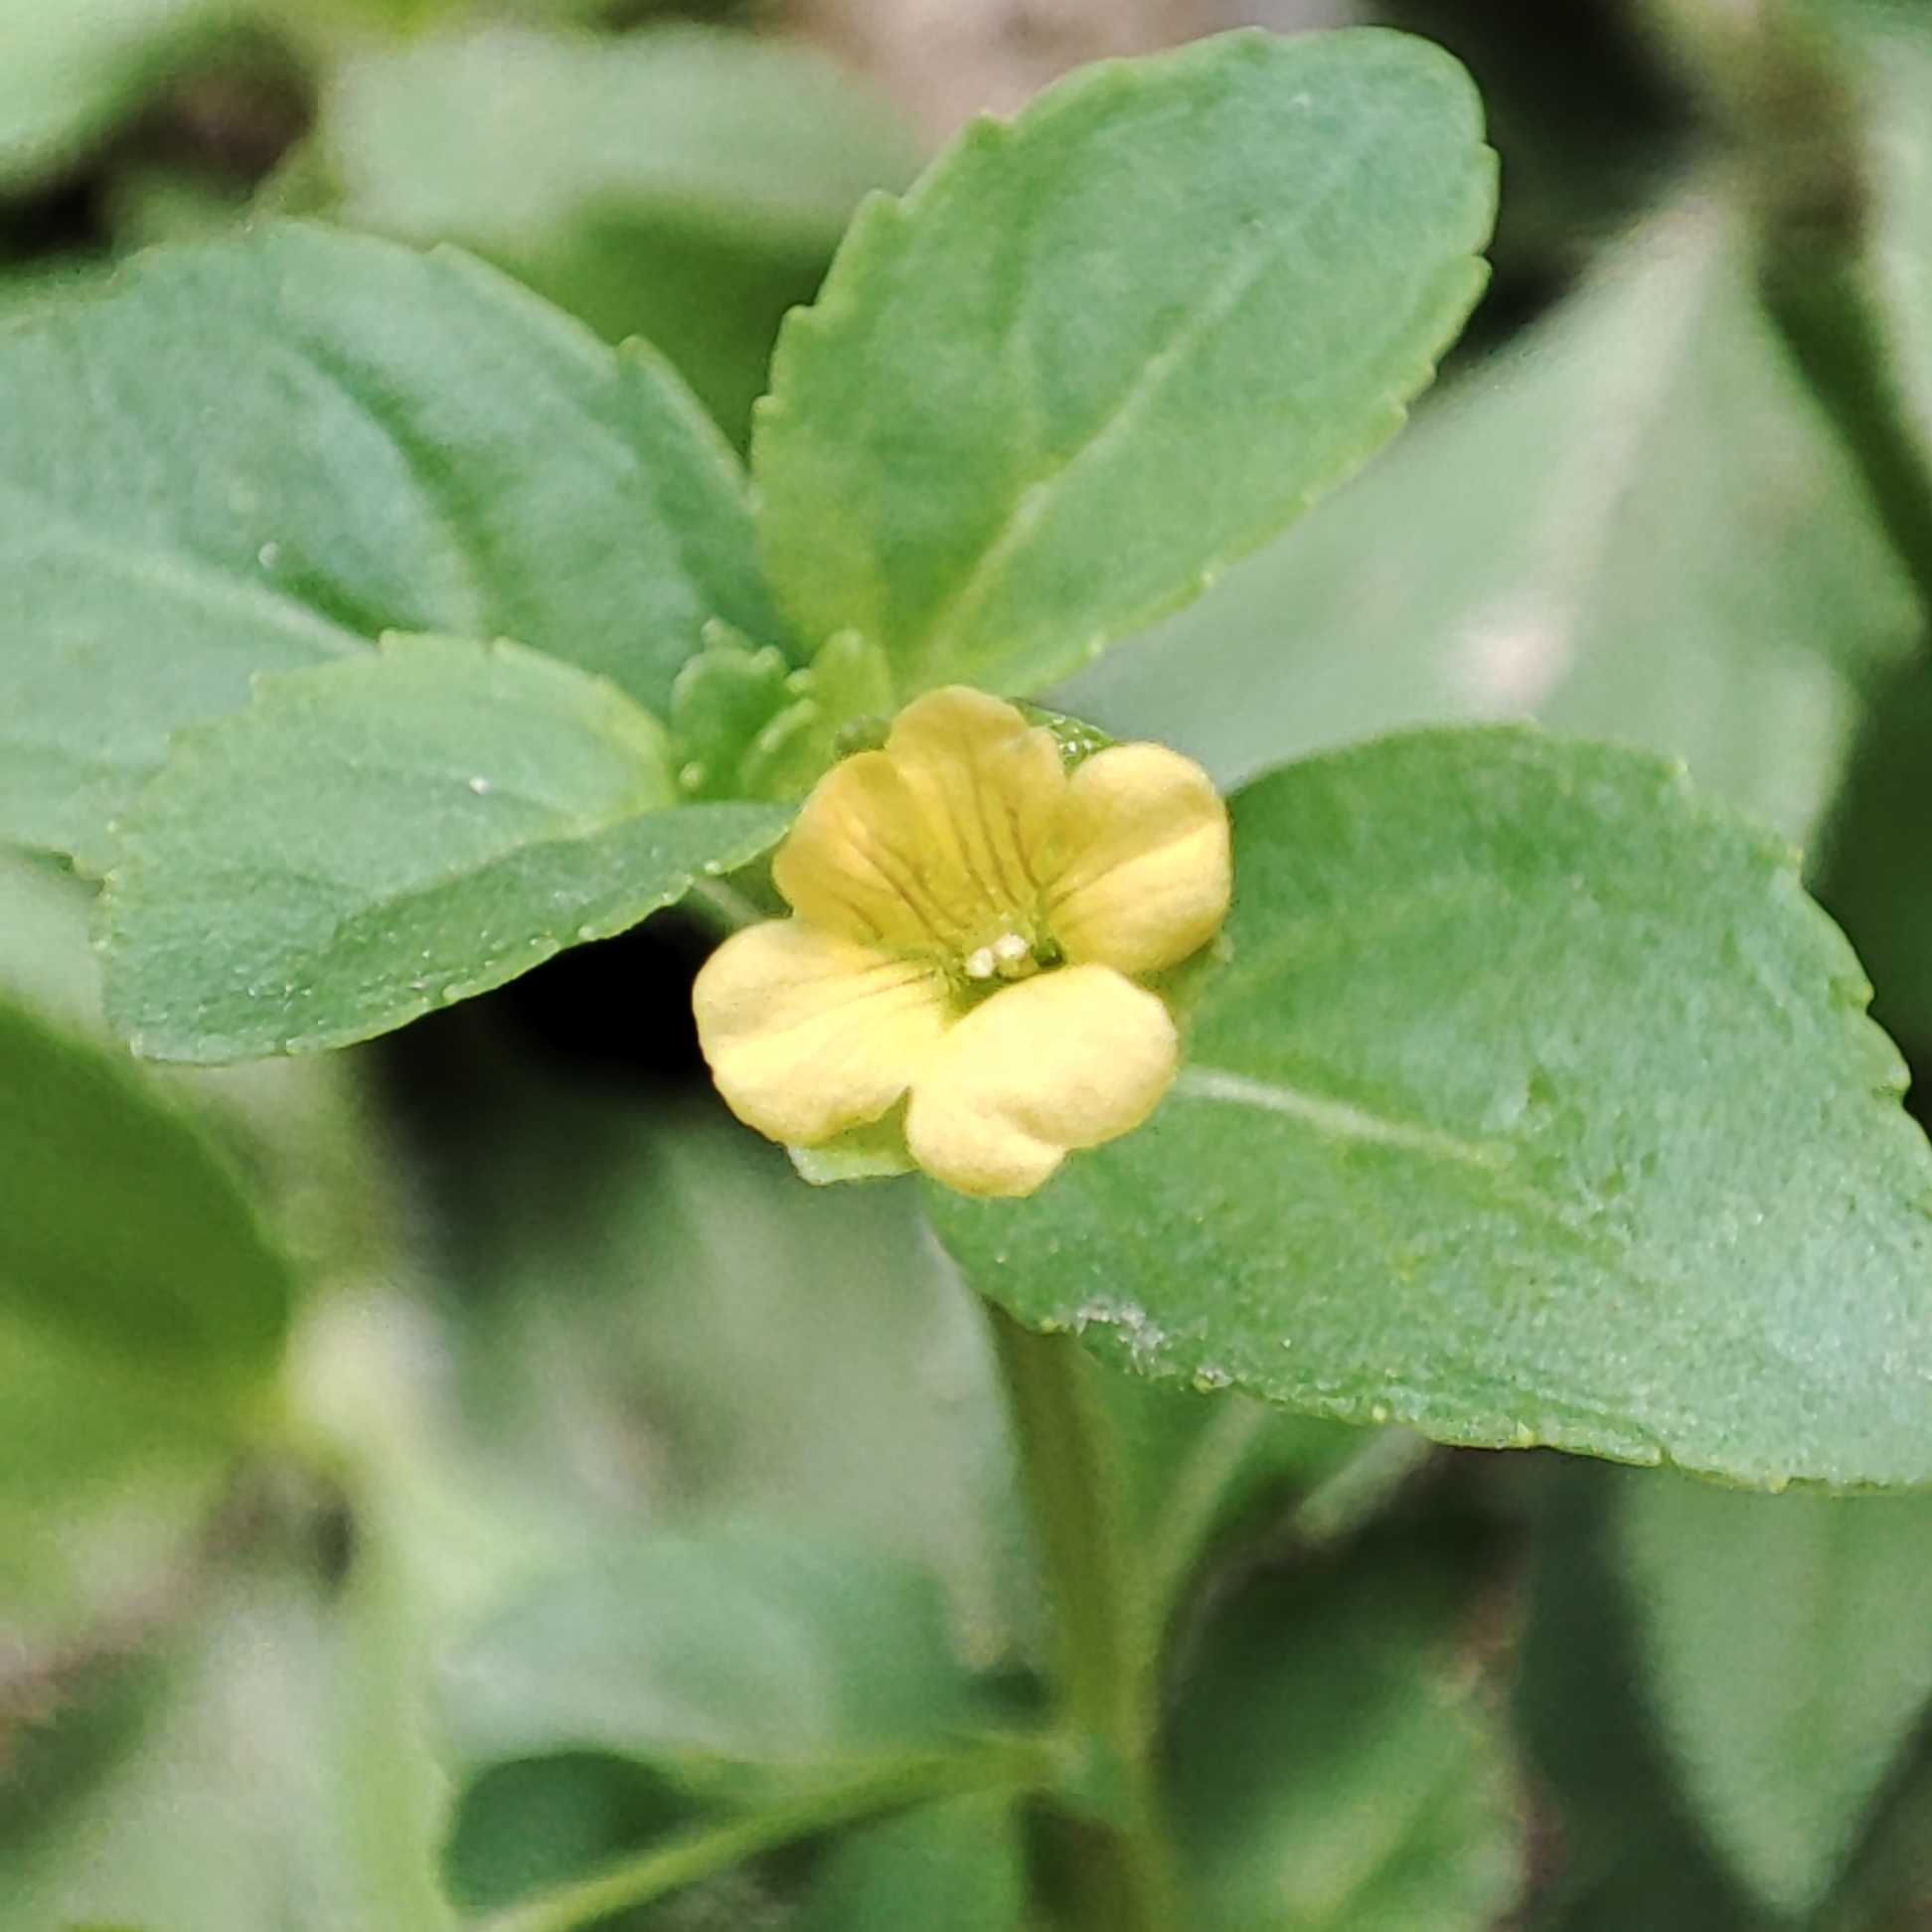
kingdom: Plantae
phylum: Tracheophyta
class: Magnoliopsida
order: Lamiales
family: Plantaginaceae
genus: Mecardonia
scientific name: Mecardonia procumbens
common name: Baby jump-up
